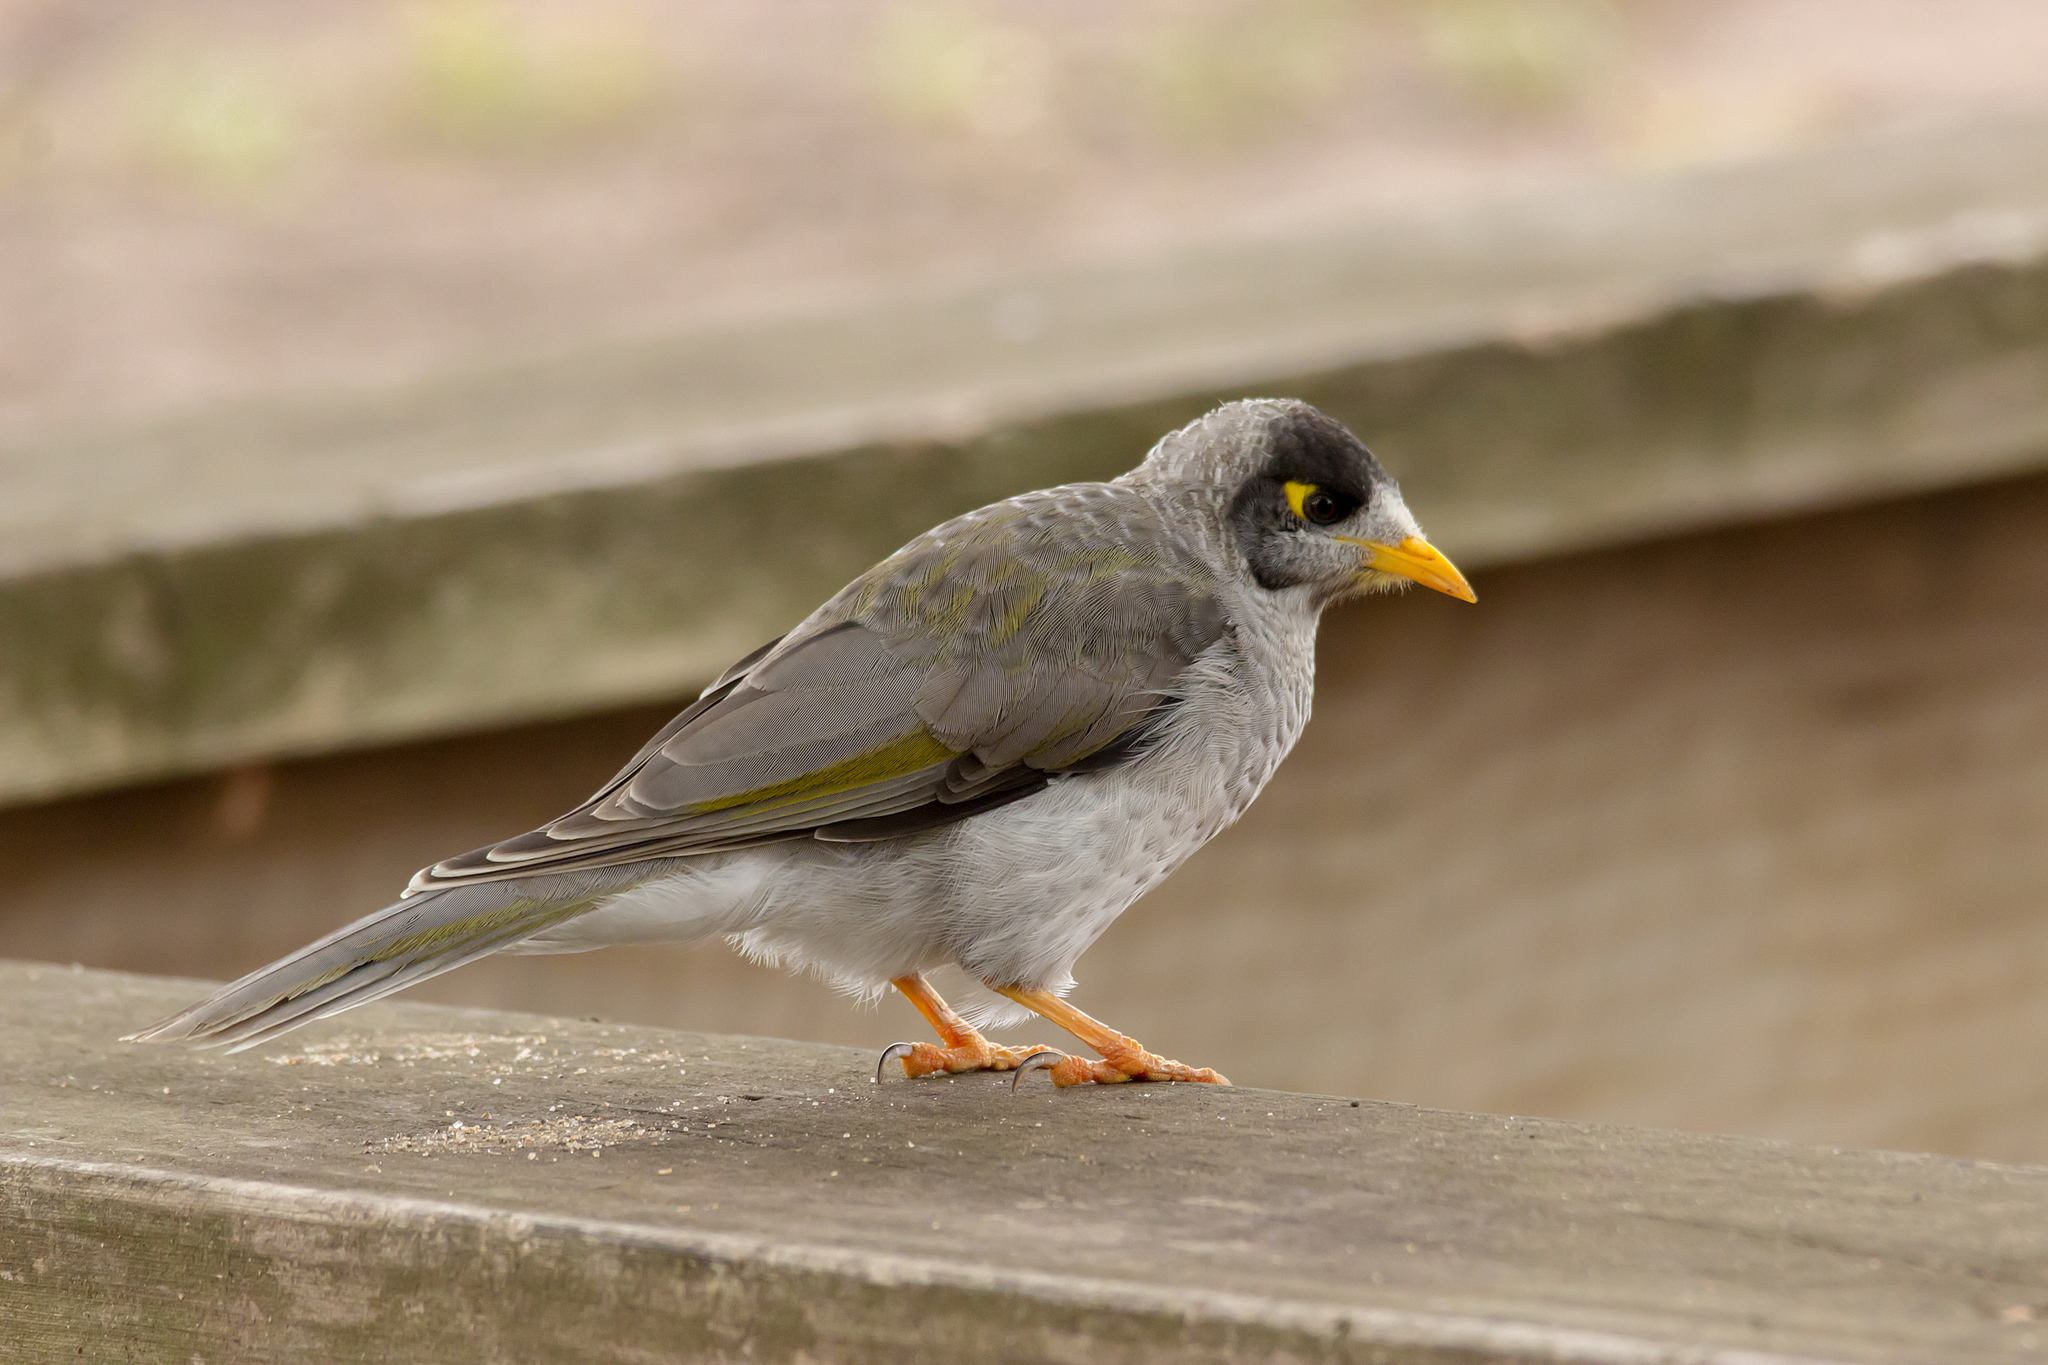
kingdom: Animalia
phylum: Chordata
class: Aves
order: Passeriformes
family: Meliphagidae
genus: Manorina
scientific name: Manorina melanocephala
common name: Noisy miner
